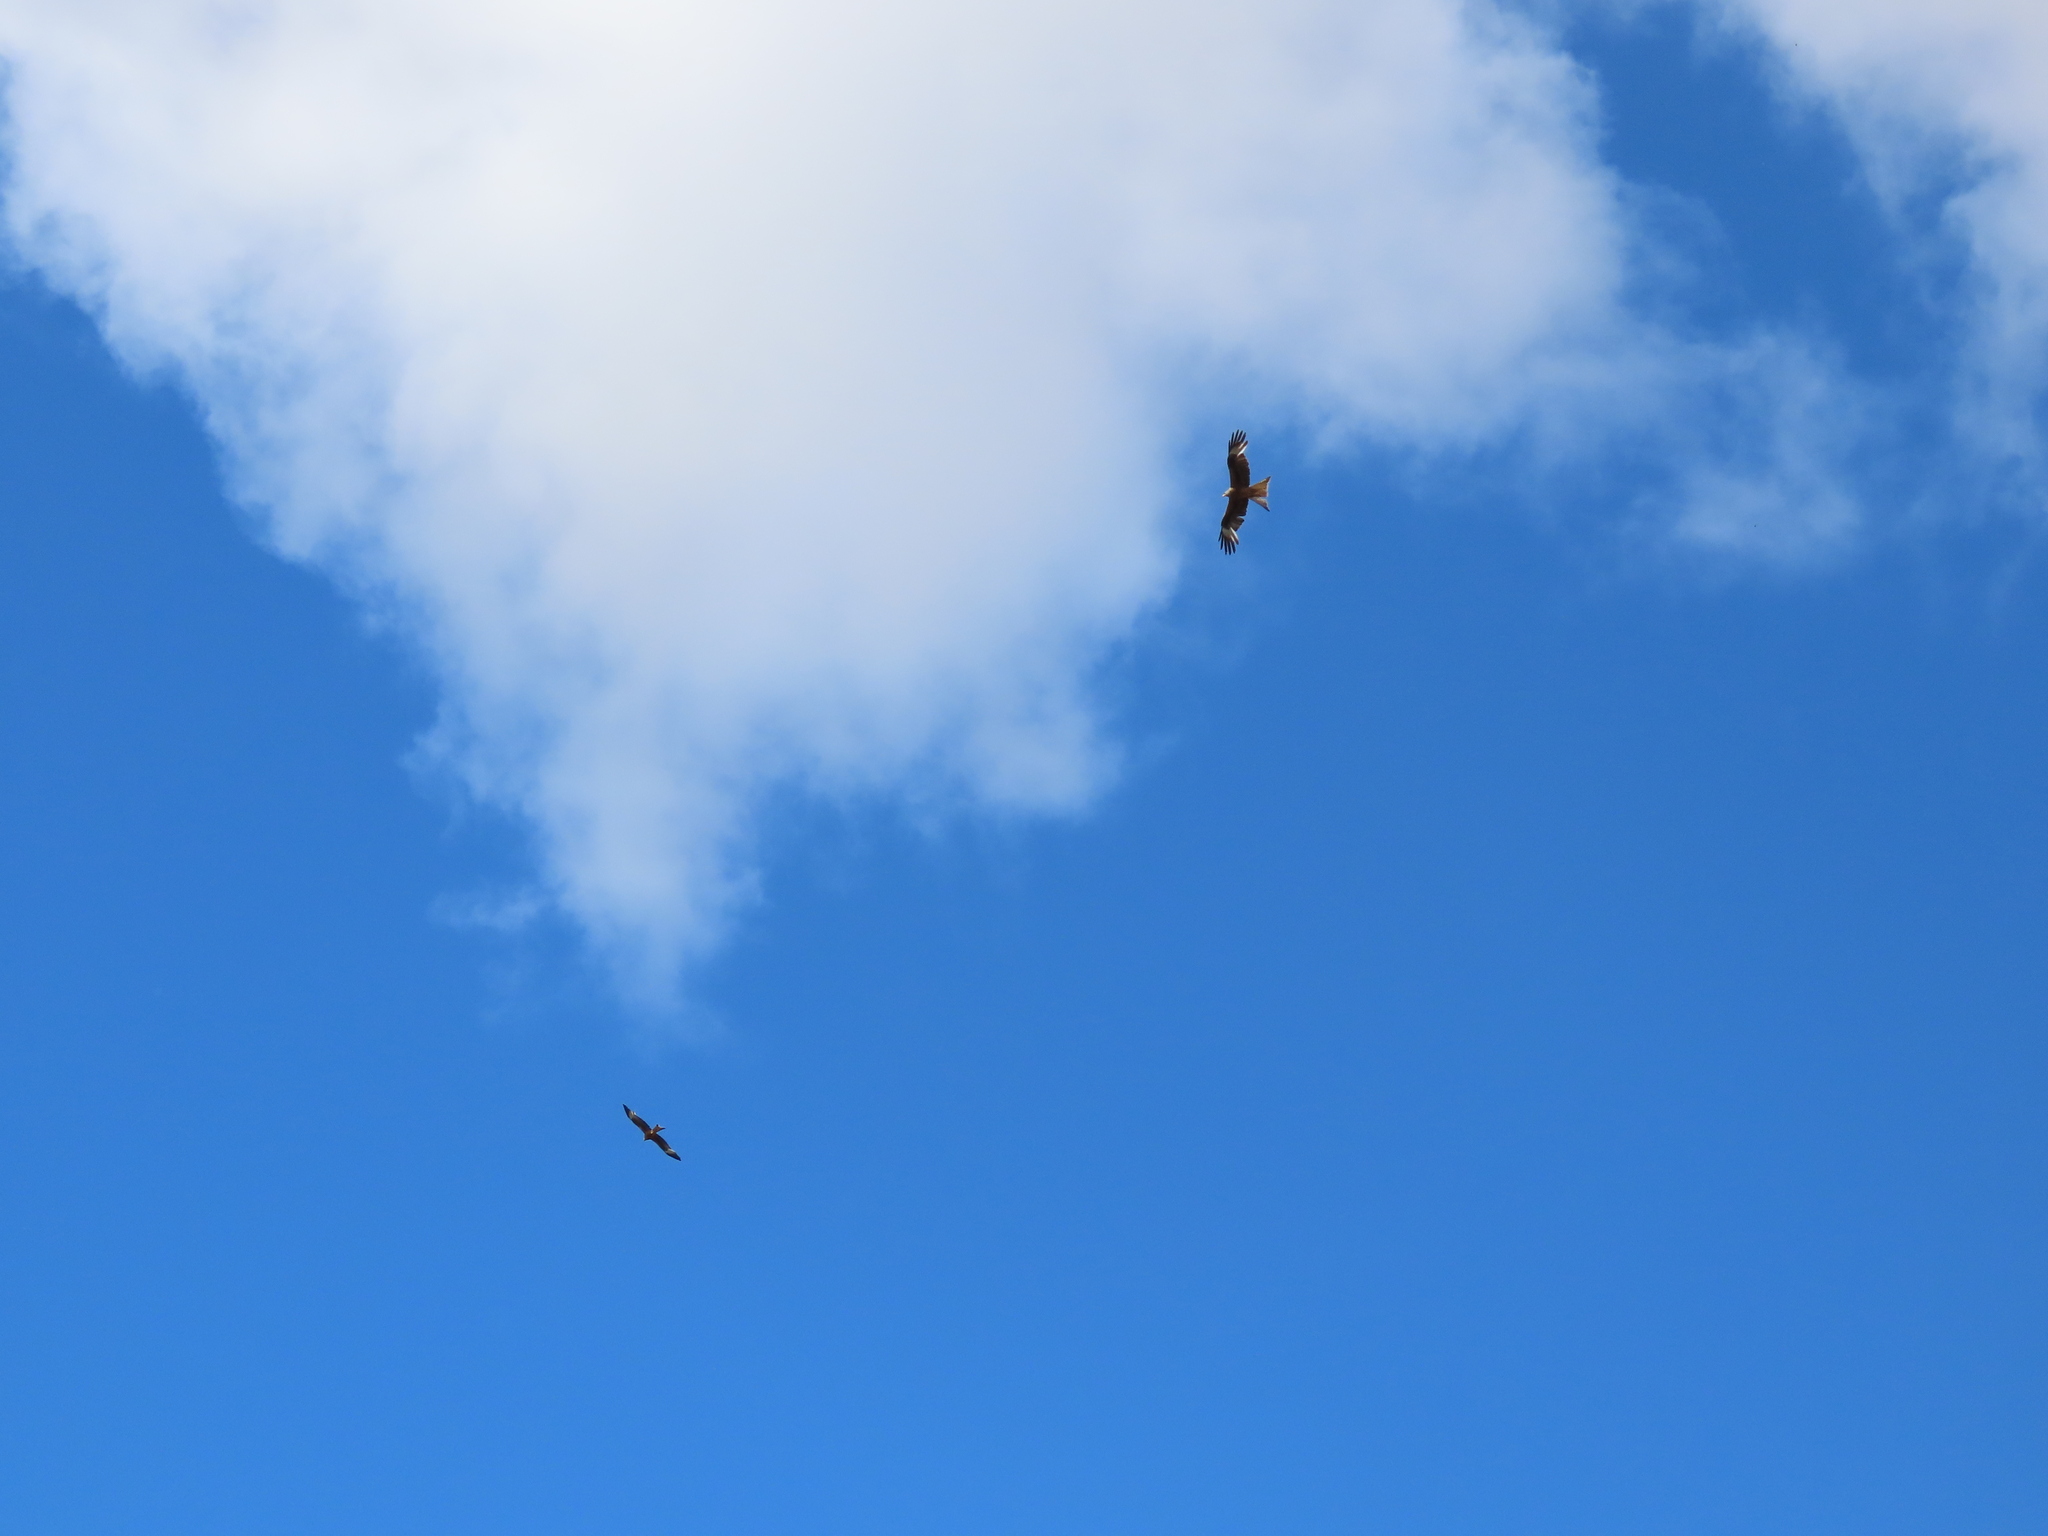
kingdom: Animalia
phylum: Chordata
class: Aves
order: Accipitriformes
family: Accipitridae
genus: Milvus
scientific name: Milvus milvus
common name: Red kite
